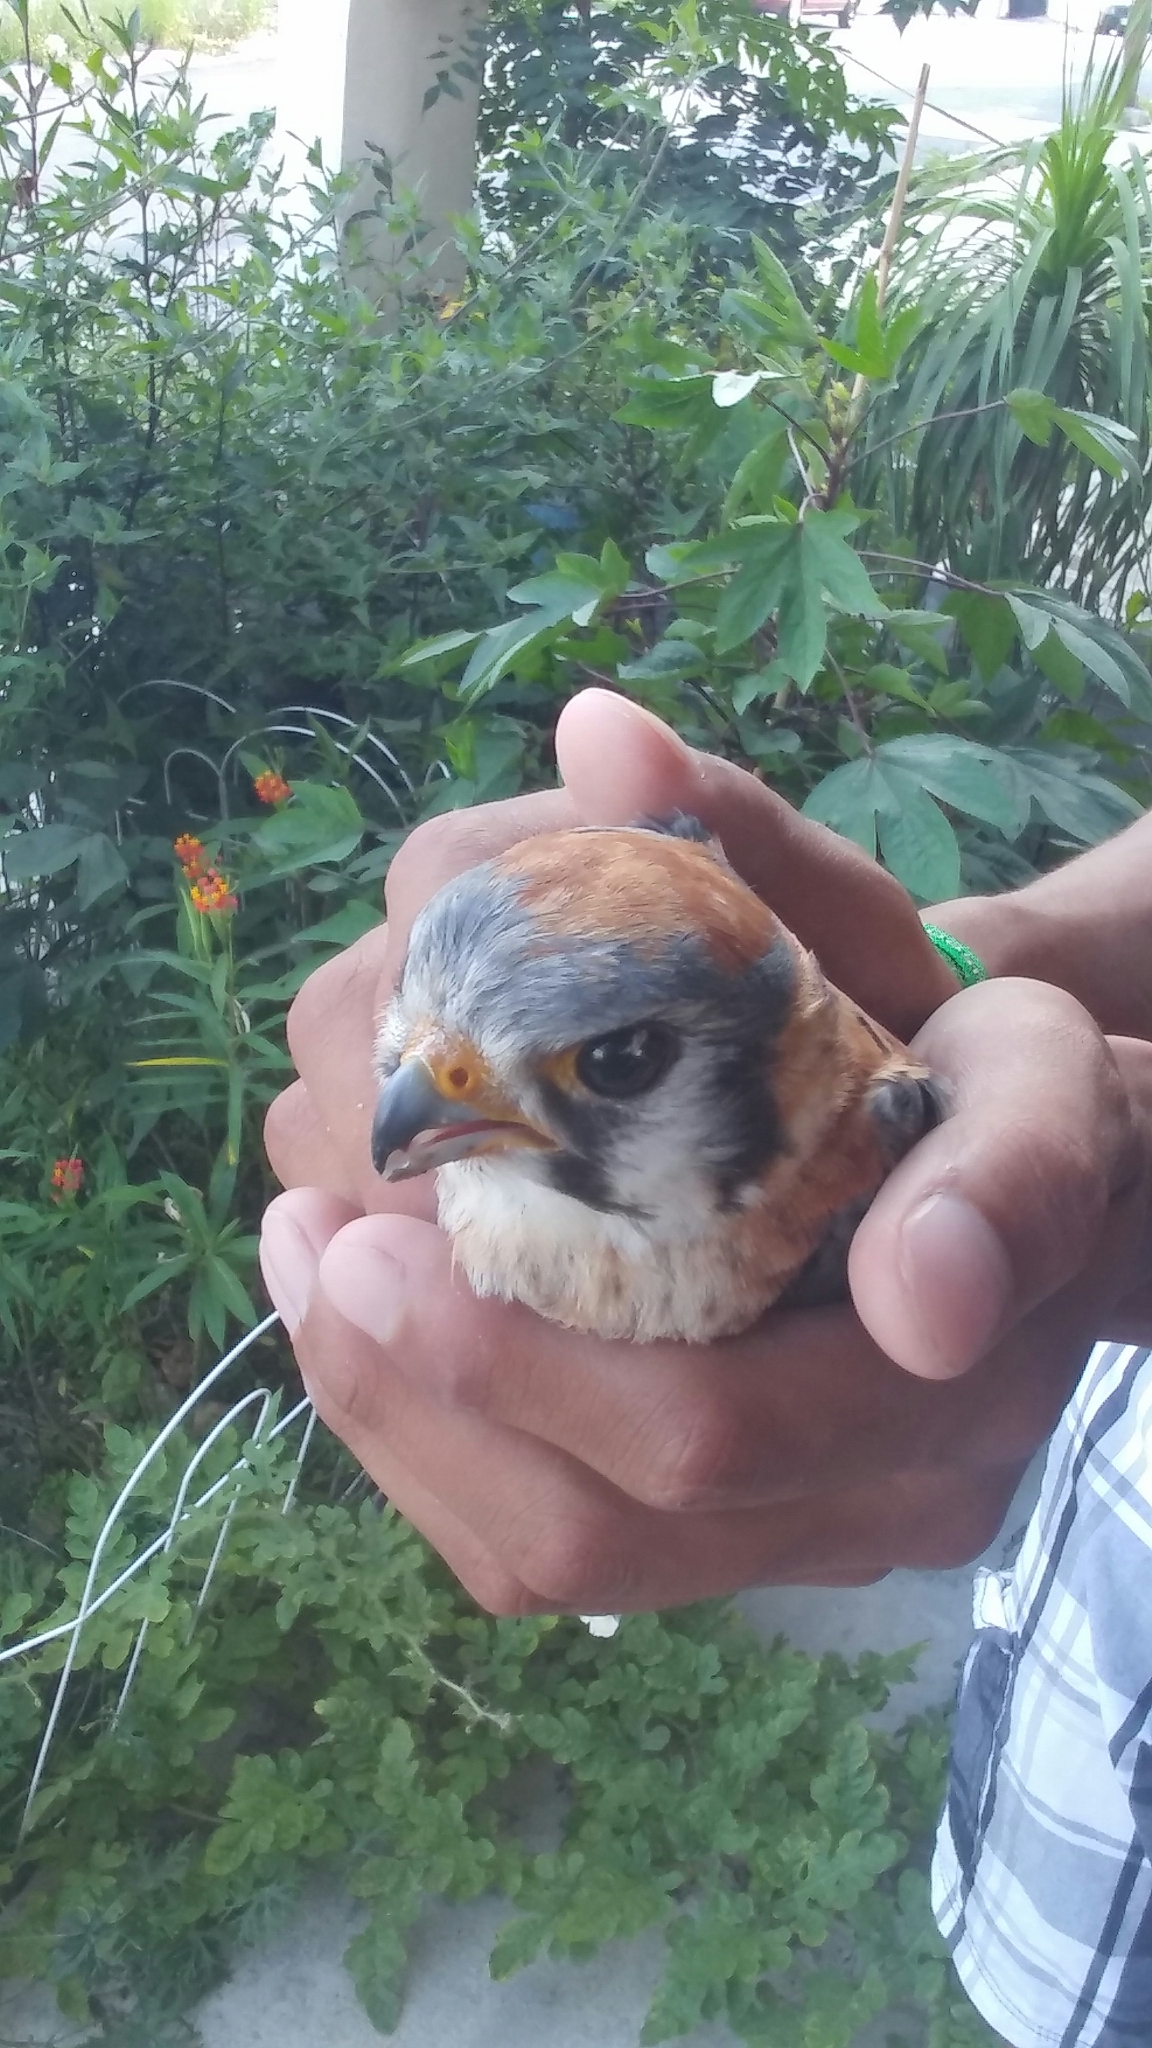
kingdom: Animalia
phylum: Chordata
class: Aves
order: Falconiformes
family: Falconidae
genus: Falco
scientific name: Falco sparverius
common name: American kestrel
